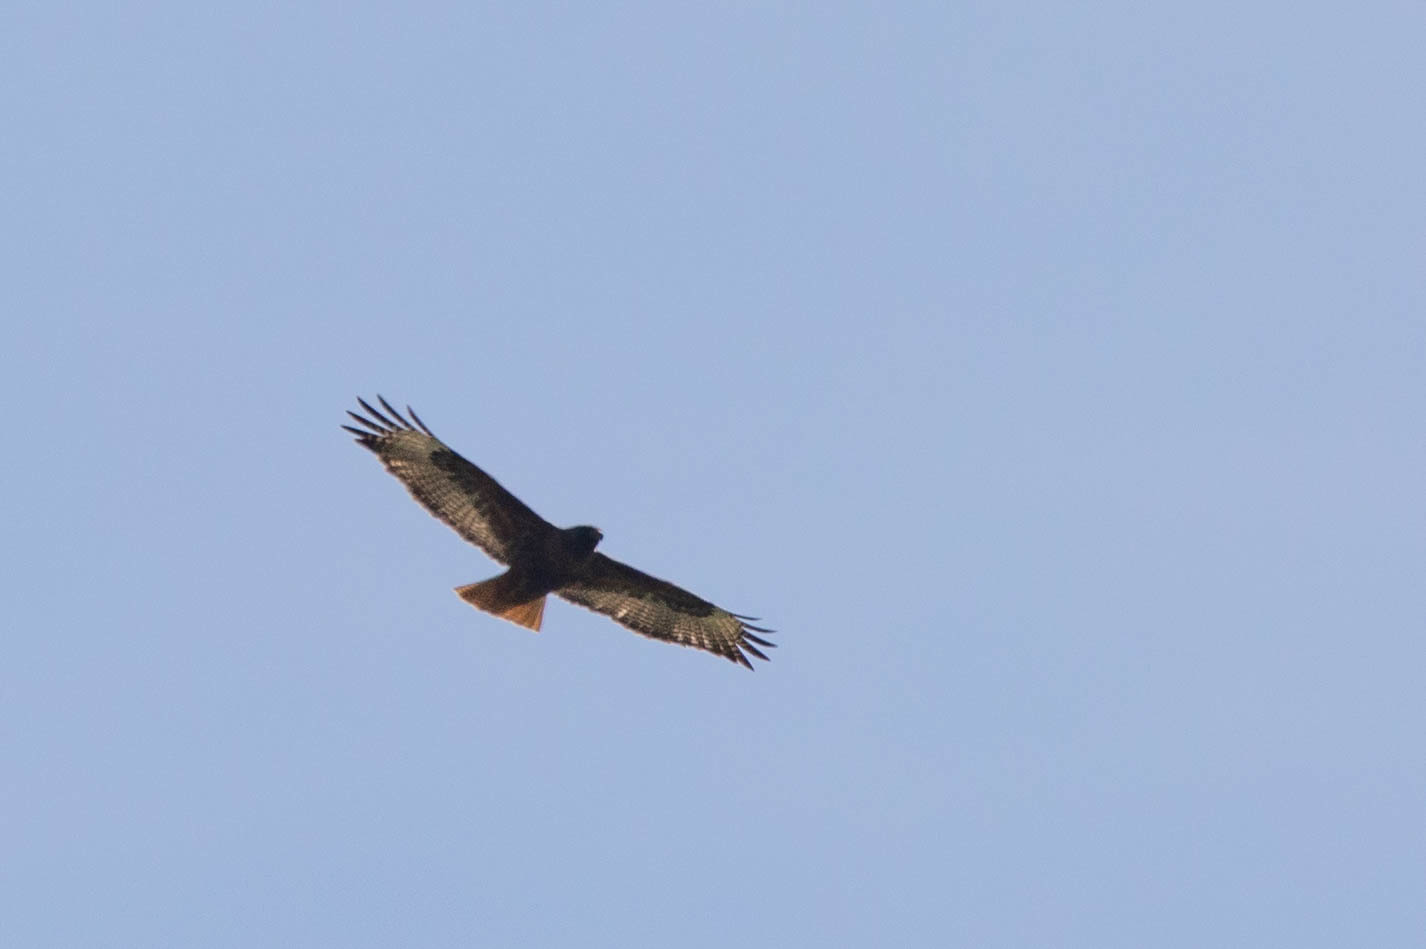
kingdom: Animalia
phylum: Chordata
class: Aves
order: Accipitriformes
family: Accipitridae
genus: Buteo
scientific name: Buteo jamaicensis
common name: Red-tailed hawk
